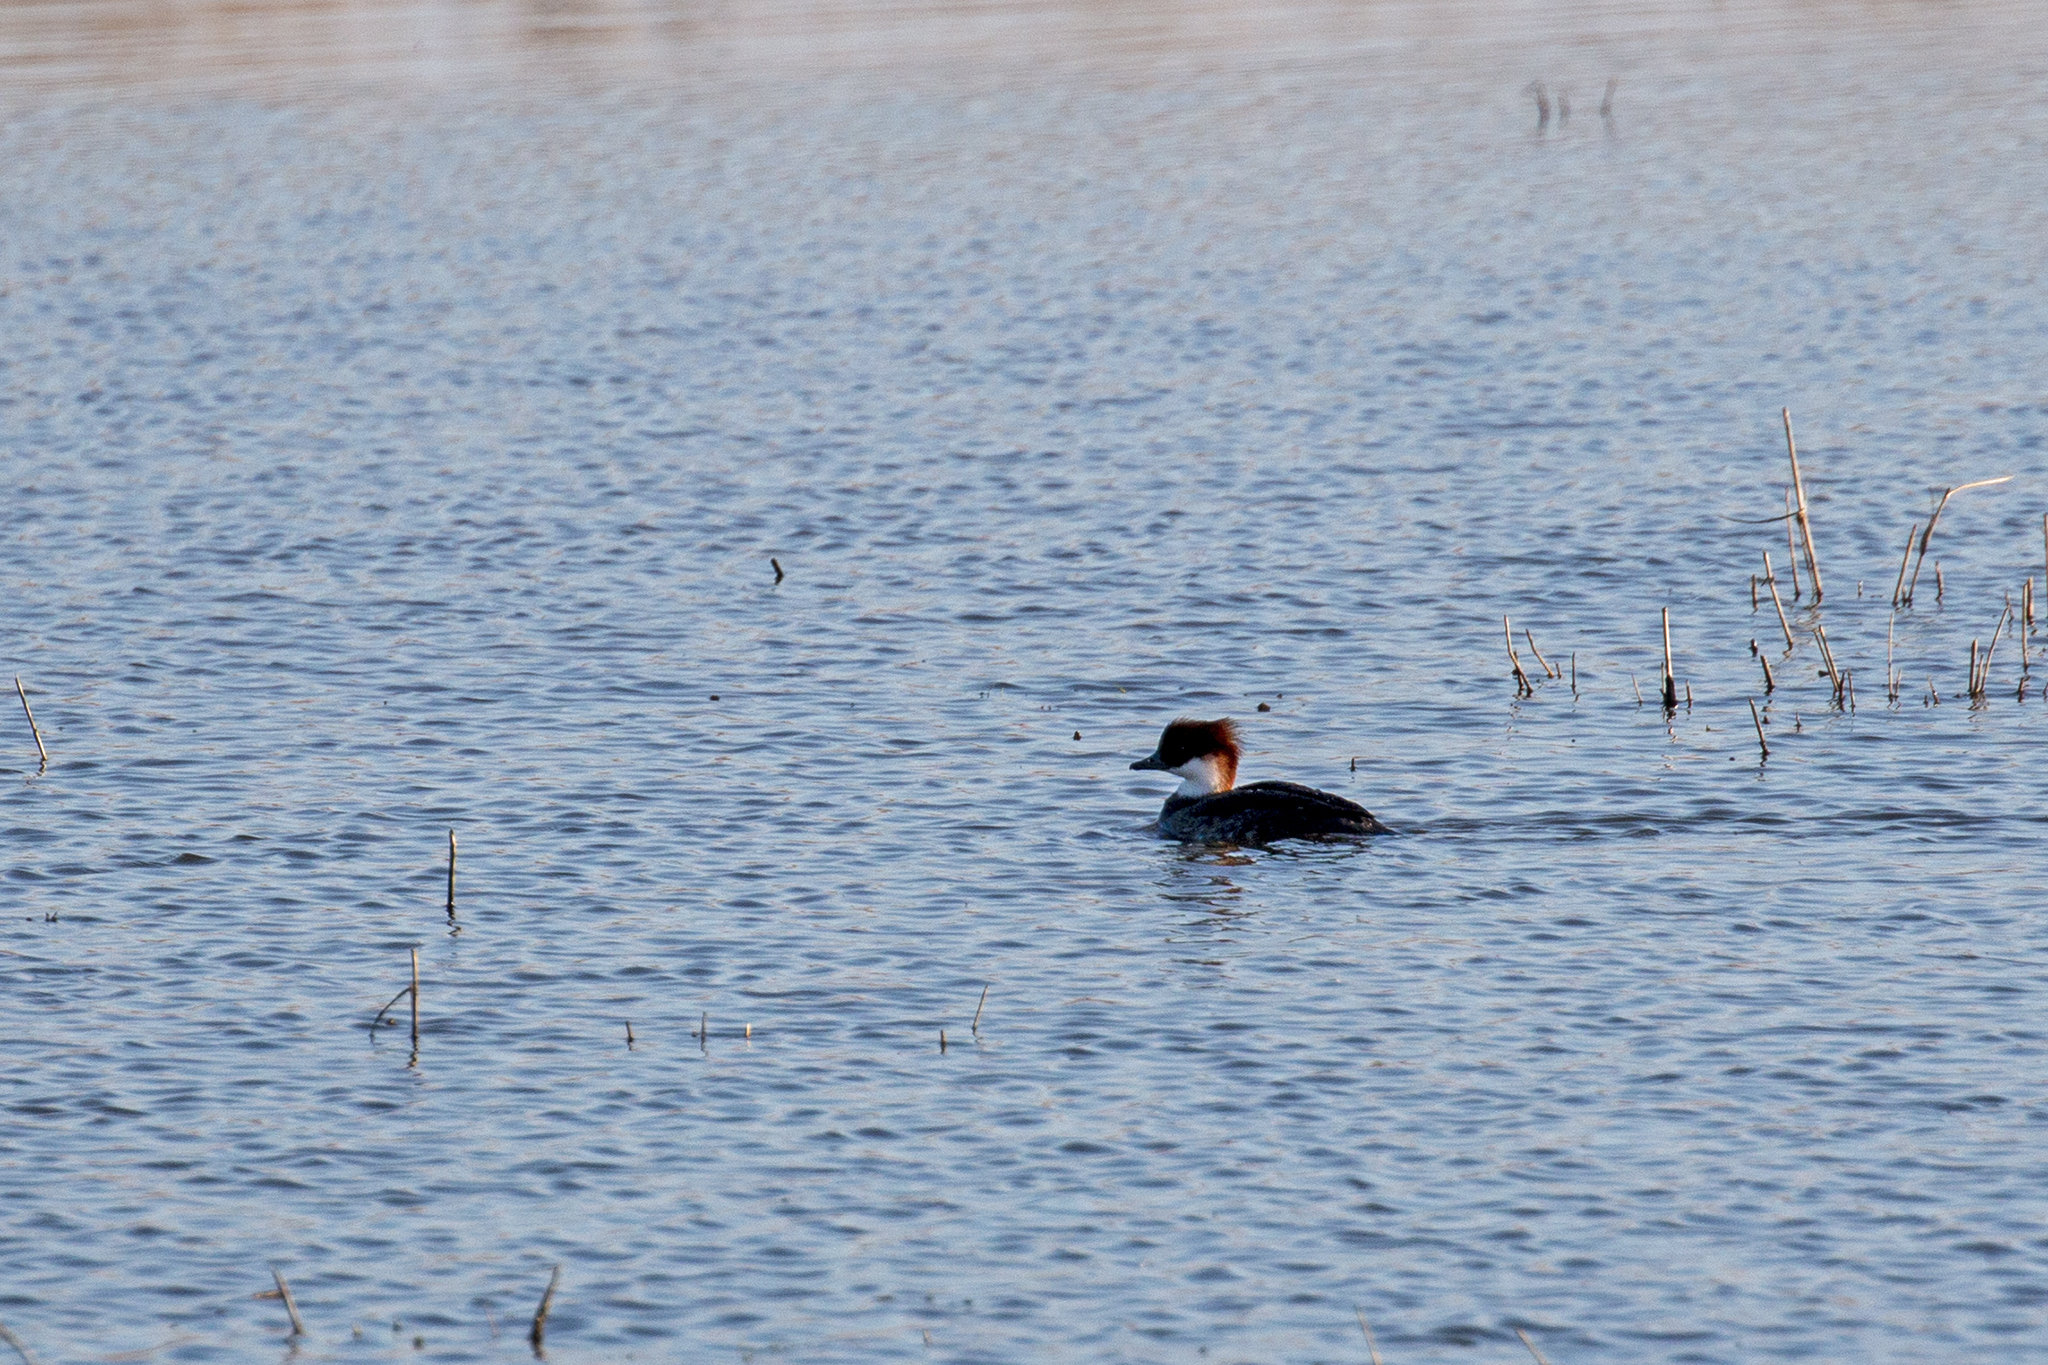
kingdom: Animalia
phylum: Chordata
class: Aves
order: Anseriformes
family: Anatidae
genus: Mergellus
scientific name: Mergellus albellus
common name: Smew
